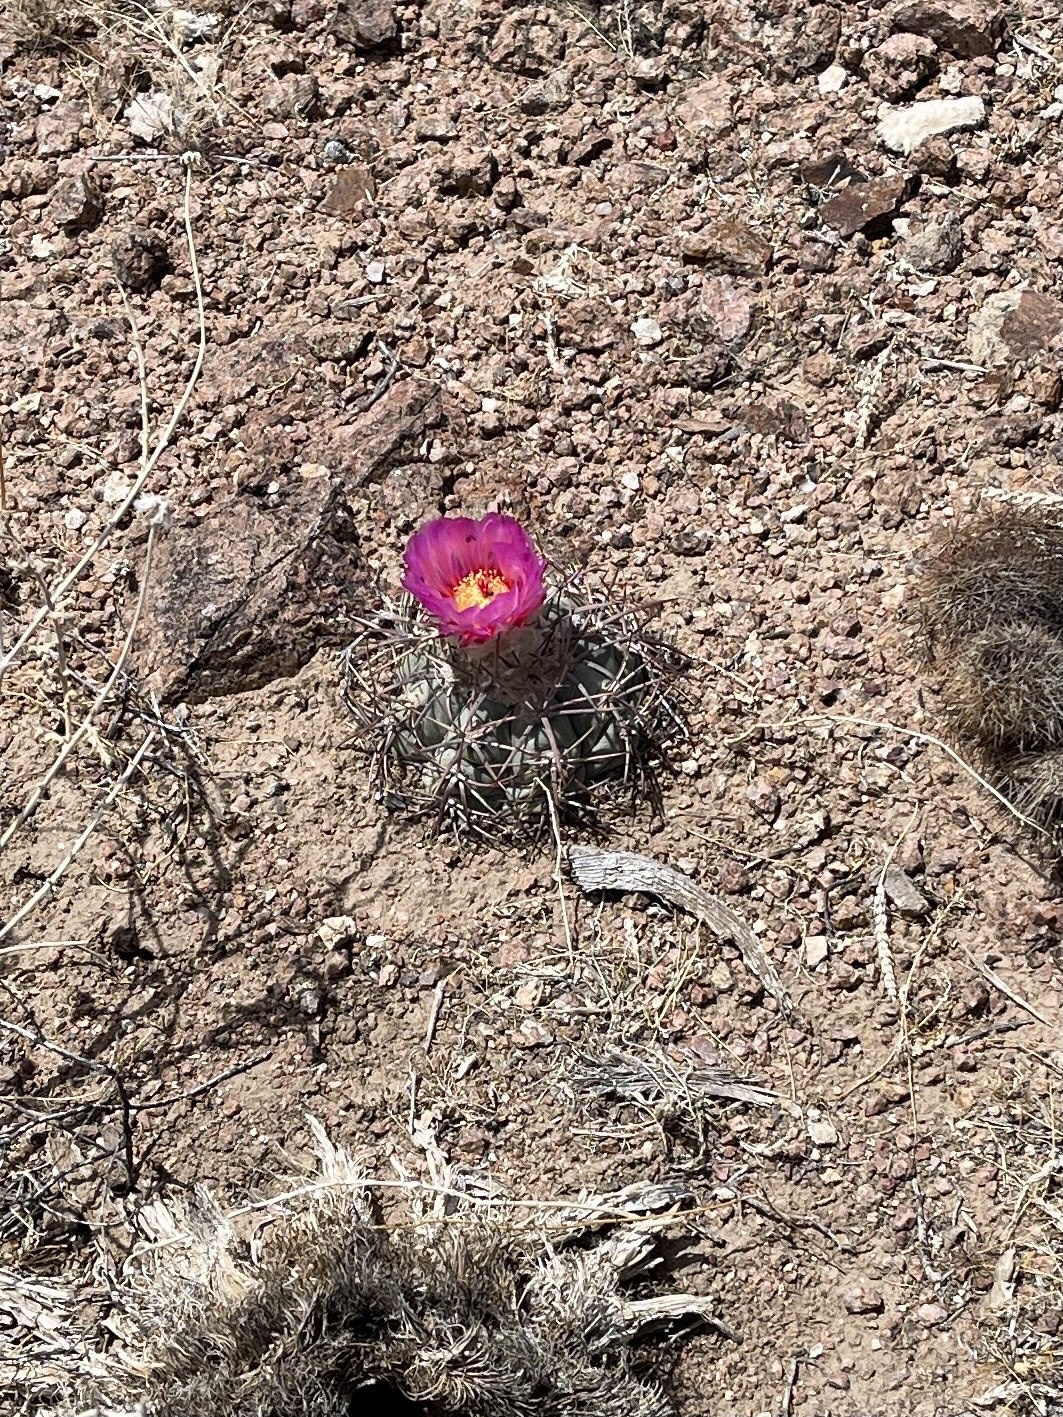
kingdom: Plantae
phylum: Tracheophyta
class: Magnoliopsida
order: Caryophyllales
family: Cactaceae
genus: Echinocactus
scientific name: Echinocactus horizonthalonius
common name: Devilshead
